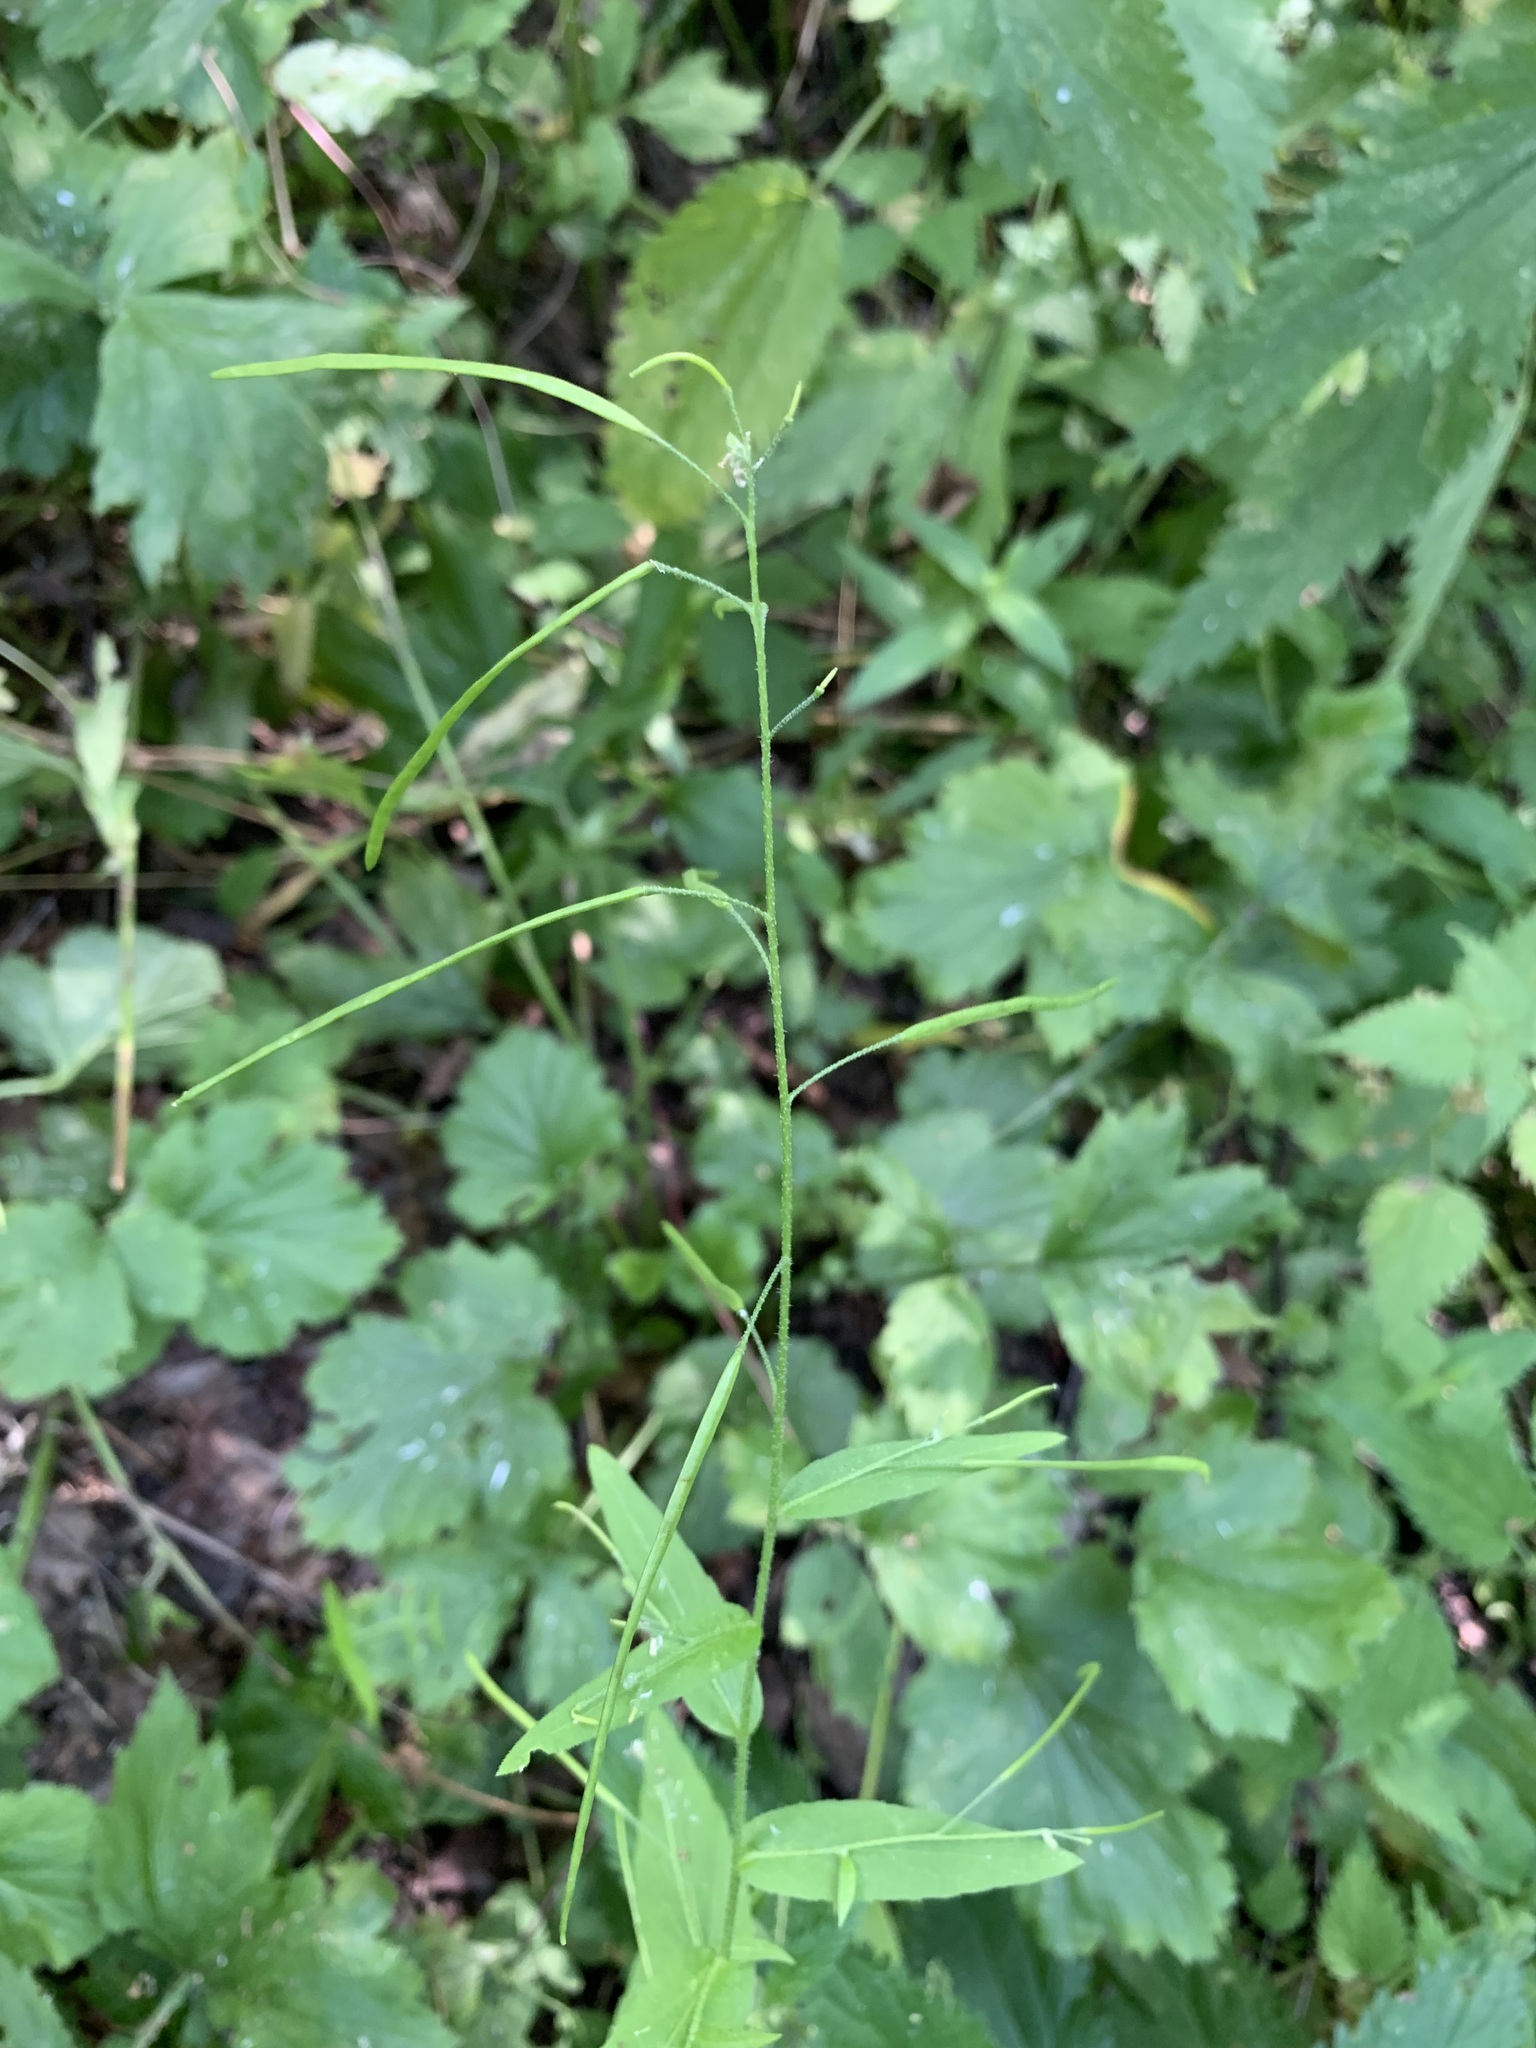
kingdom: Plantae
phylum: Tracheophyta
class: Magnoliopsida
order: Brassicales
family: Brassicaceae
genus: Catolobus
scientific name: Catolobus pendulus
